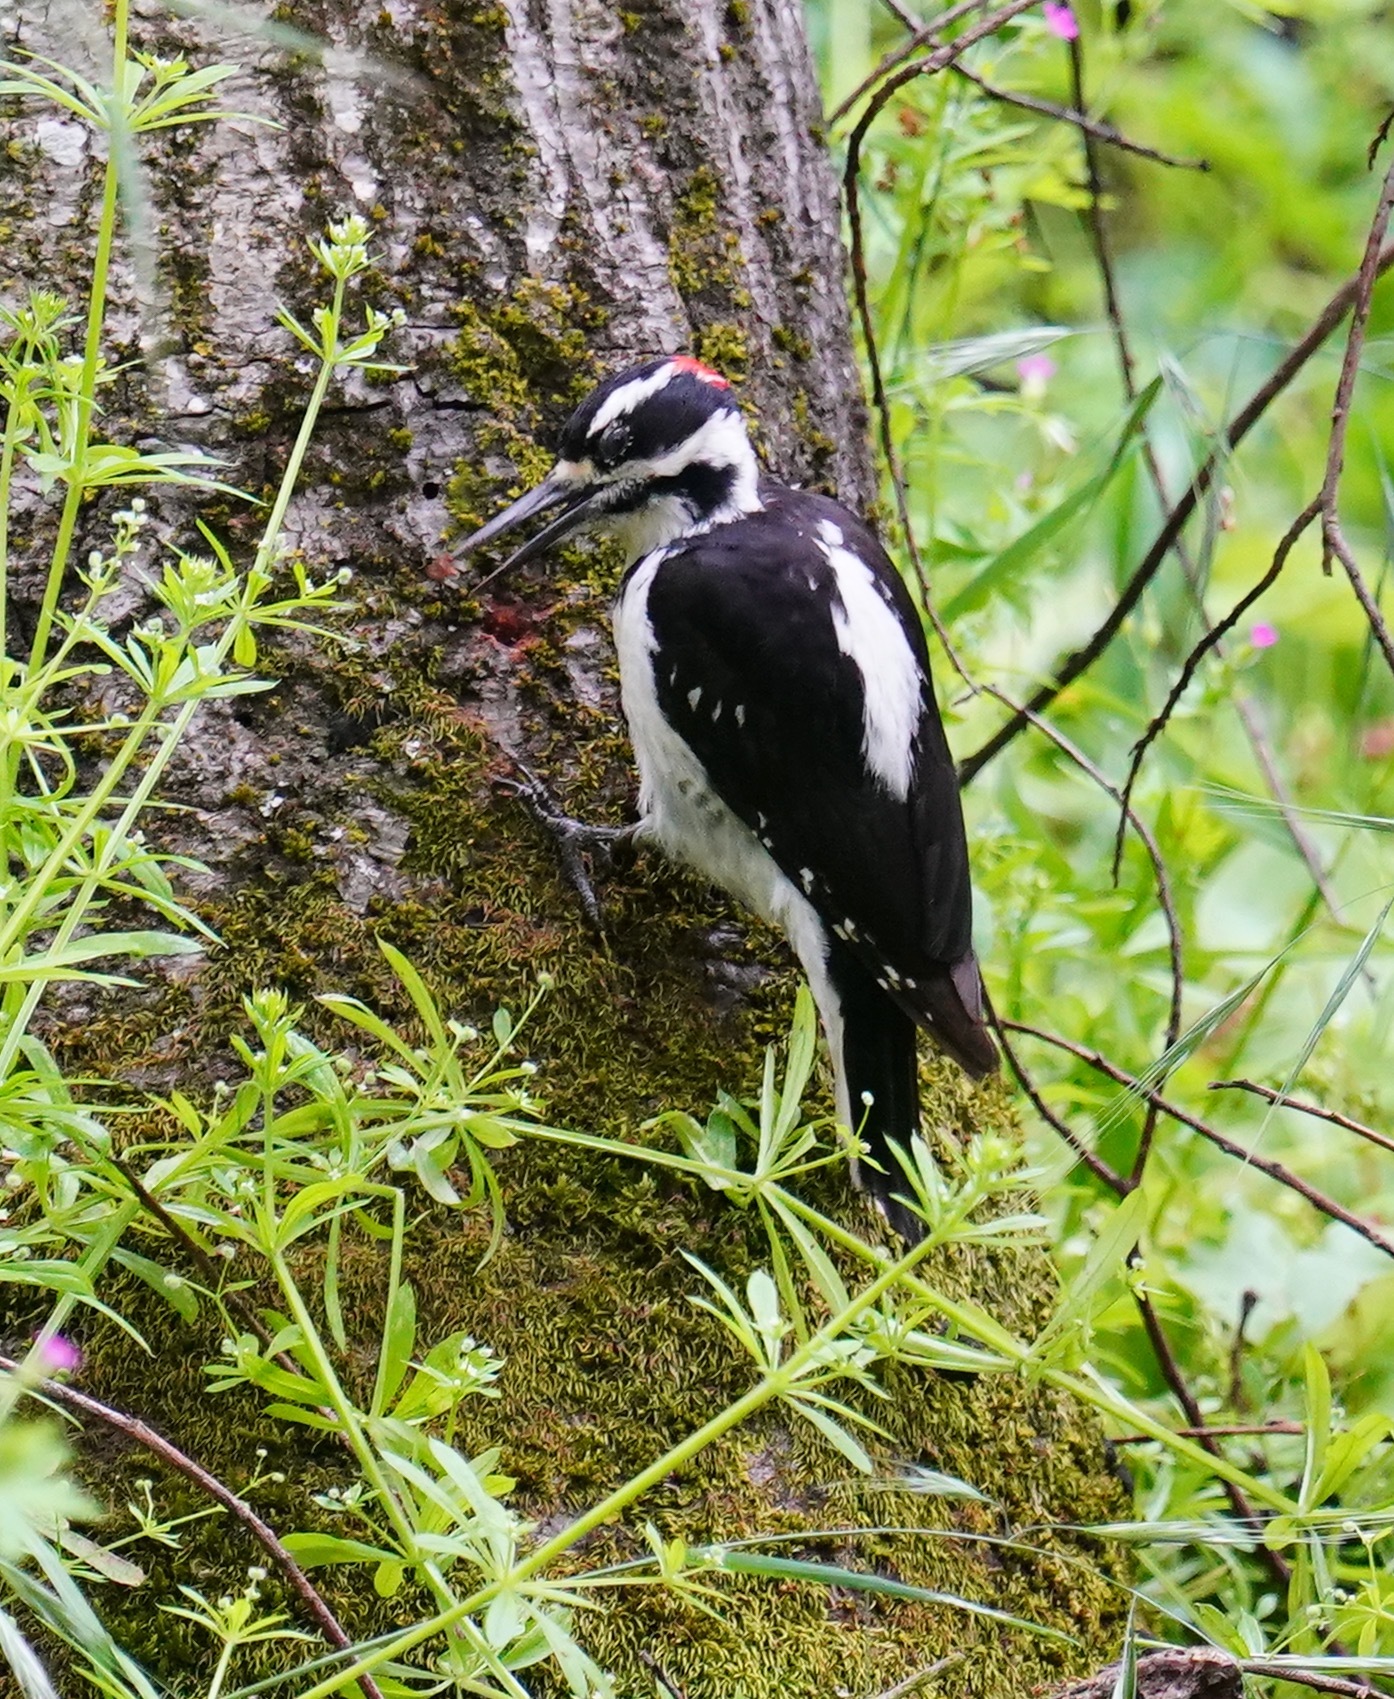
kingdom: Animalia
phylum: Chordata
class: Aves
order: Piciformes
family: Picidae
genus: Leuconotopicus
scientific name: Leuconotopicus villosus
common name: Hairy woodpecker
